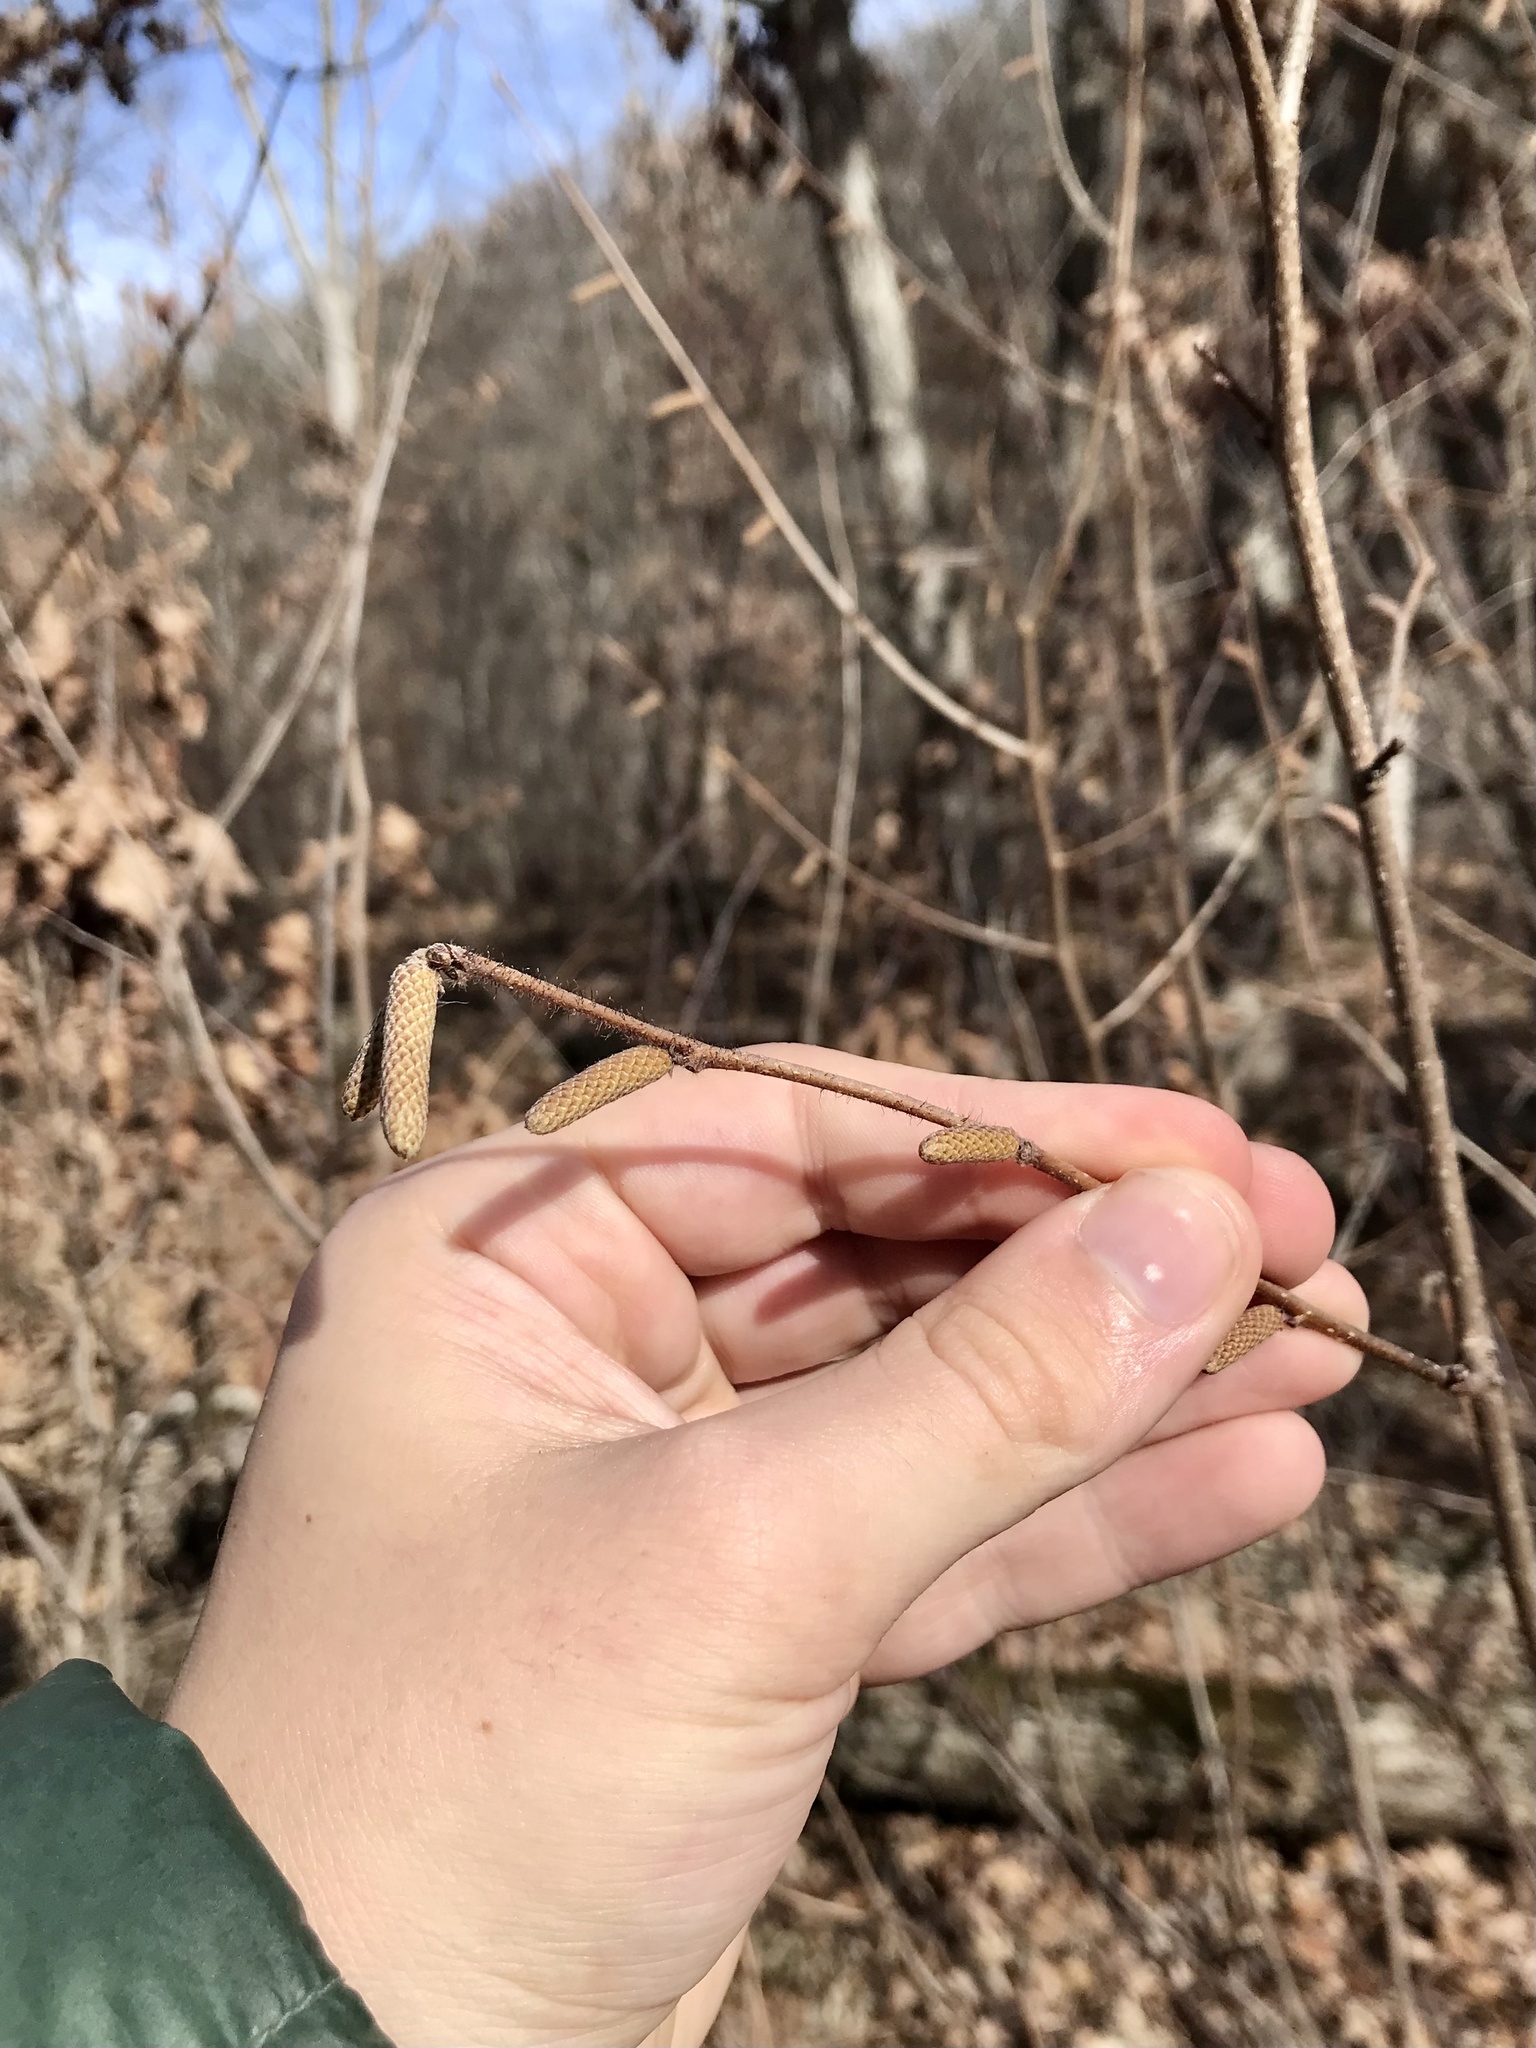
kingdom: Plantae
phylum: Tracheophyta
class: Magnoliopsida
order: Fagales
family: Betulaceae
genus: Corylus
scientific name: Corylus americana
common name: American hazel
